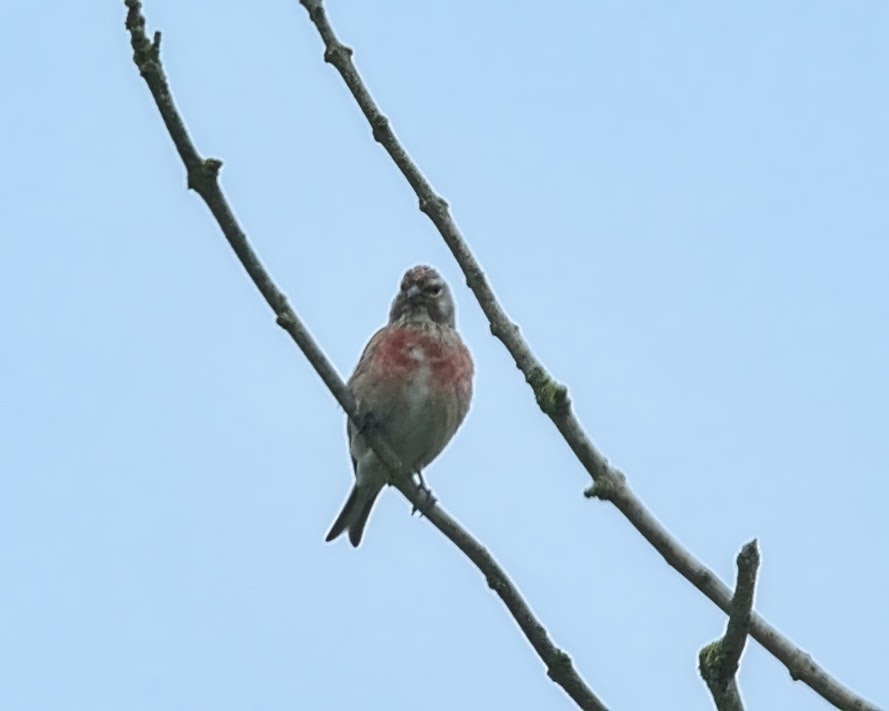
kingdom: Animalia
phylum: Chordata
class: Aves
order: Passeriformes
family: Fringillidae
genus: Linaria
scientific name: Linaria cannabina
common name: Common linnet
